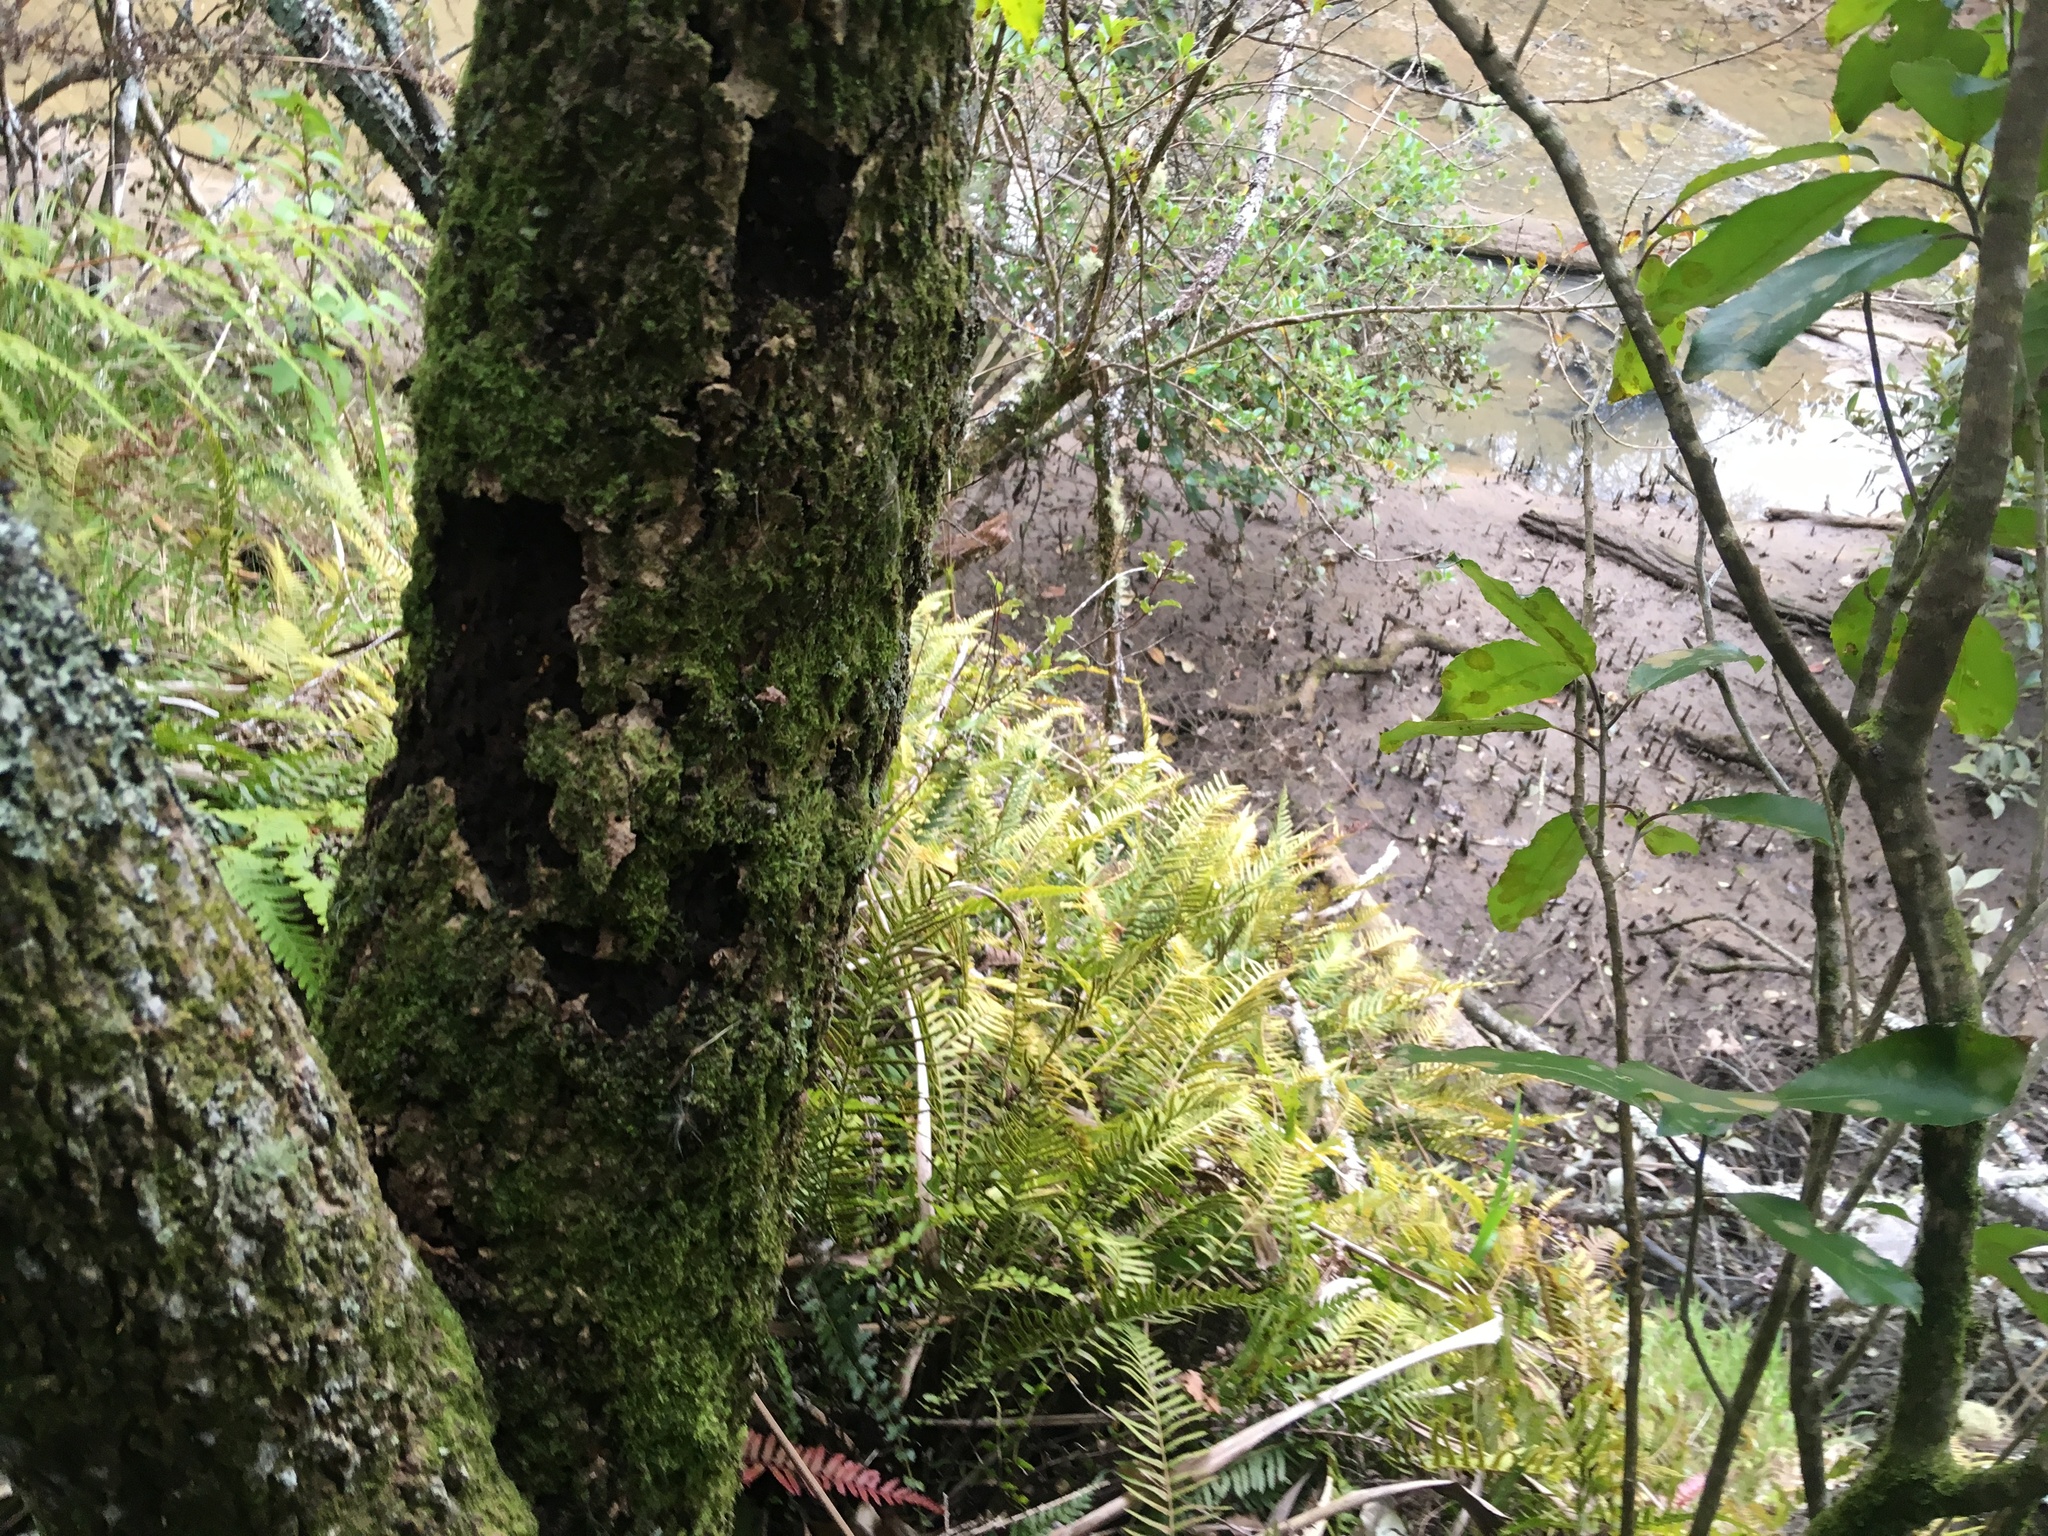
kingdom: Plantae
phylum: Tracheophyta
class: Polypodiopsida
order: Polypodiales
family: Blechnaceae
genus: Doodia
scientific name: Doodia australis
